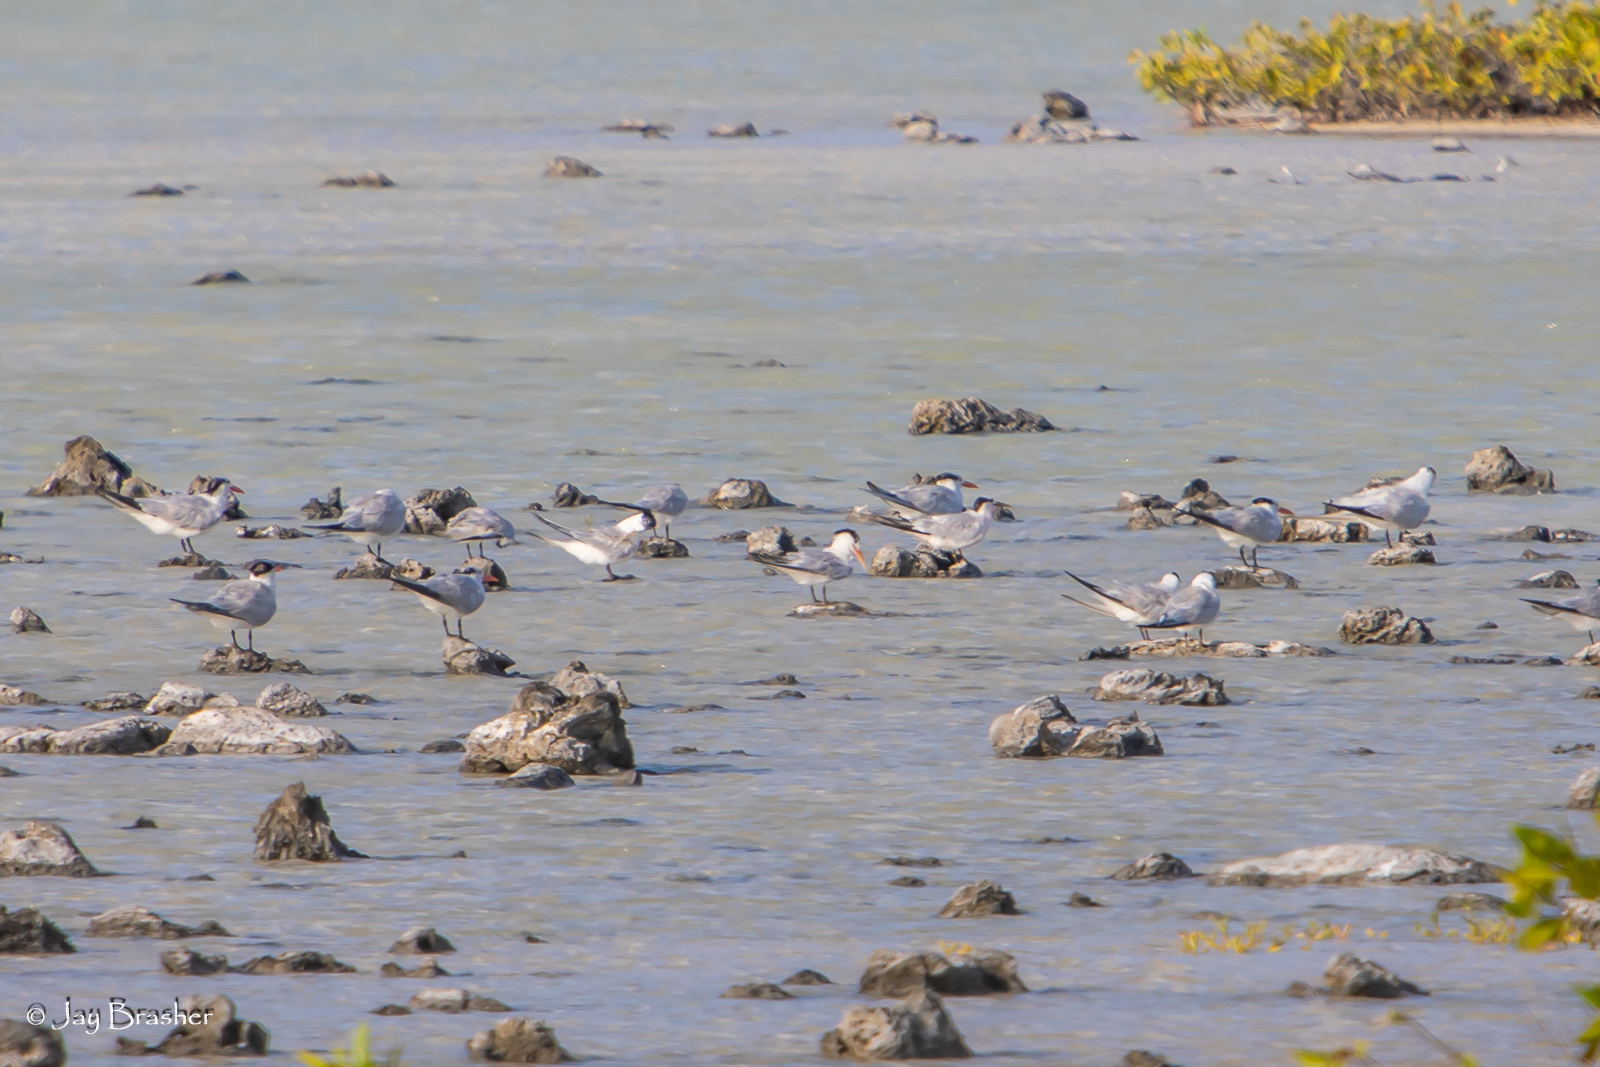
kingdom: Animalia
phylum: Chordata
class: Aves
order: Charadriiformes
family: Laridae
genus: Thalasseus
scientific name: Thalasseus maximus
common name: Royal tern
